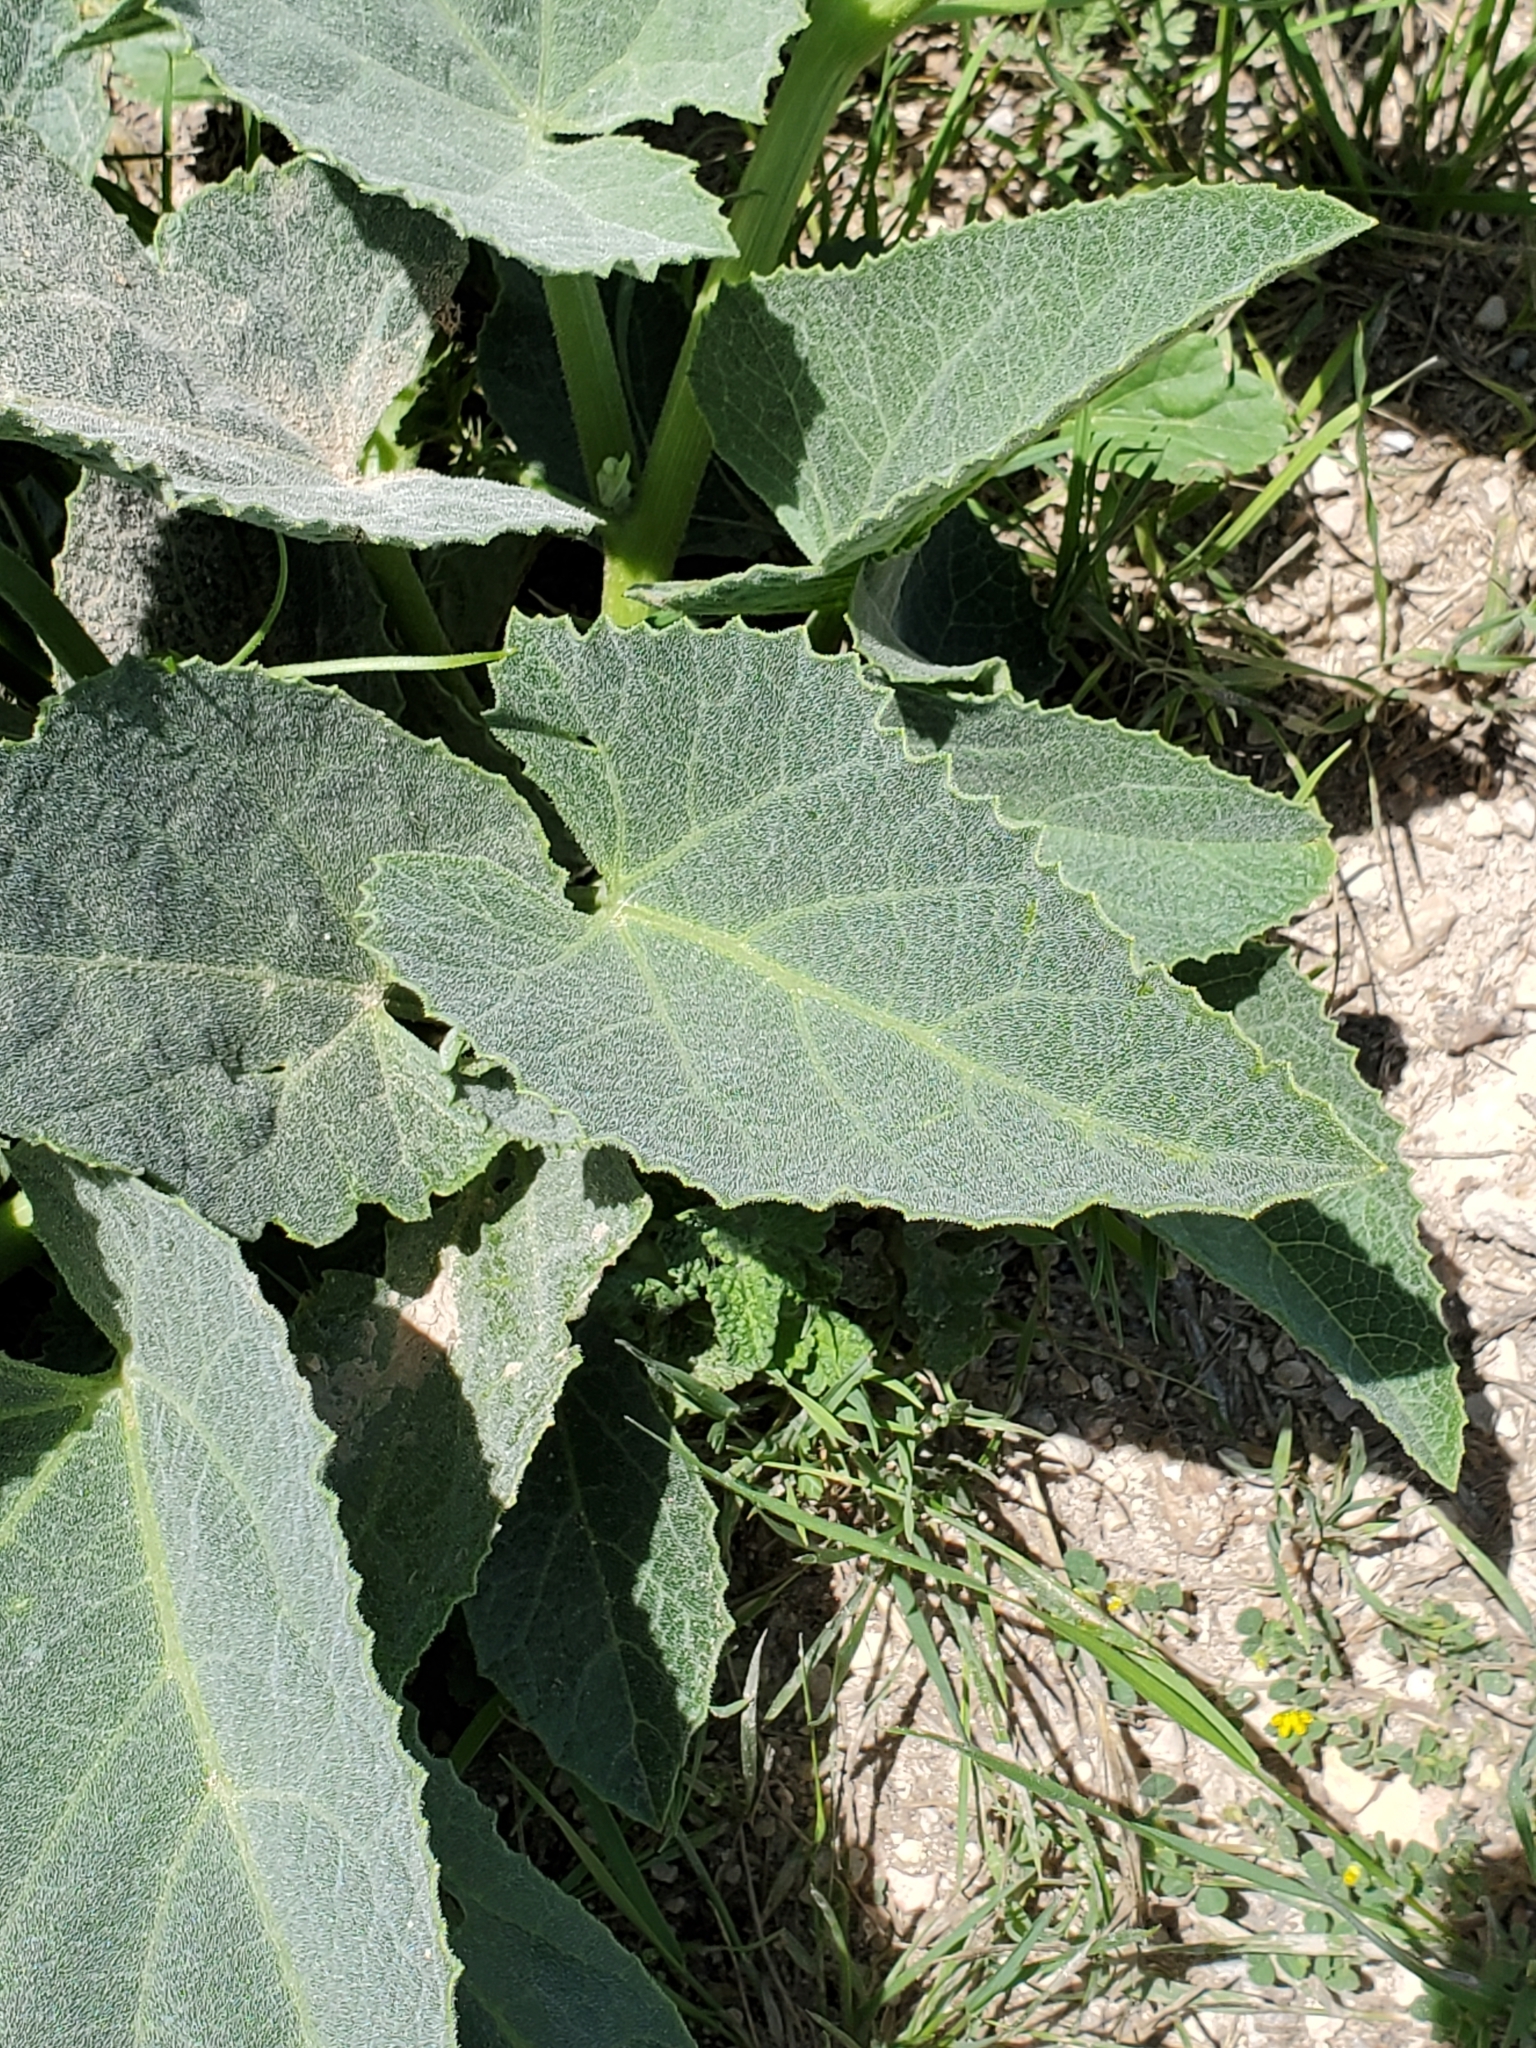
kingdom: Plantae
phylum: Tracheophyta
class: Magnoliopsida
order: Cucurbitales
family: Cucurbitaceae
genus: Cucurbita
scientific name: Cucurbita foetidissima
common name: Buffalo gourd
